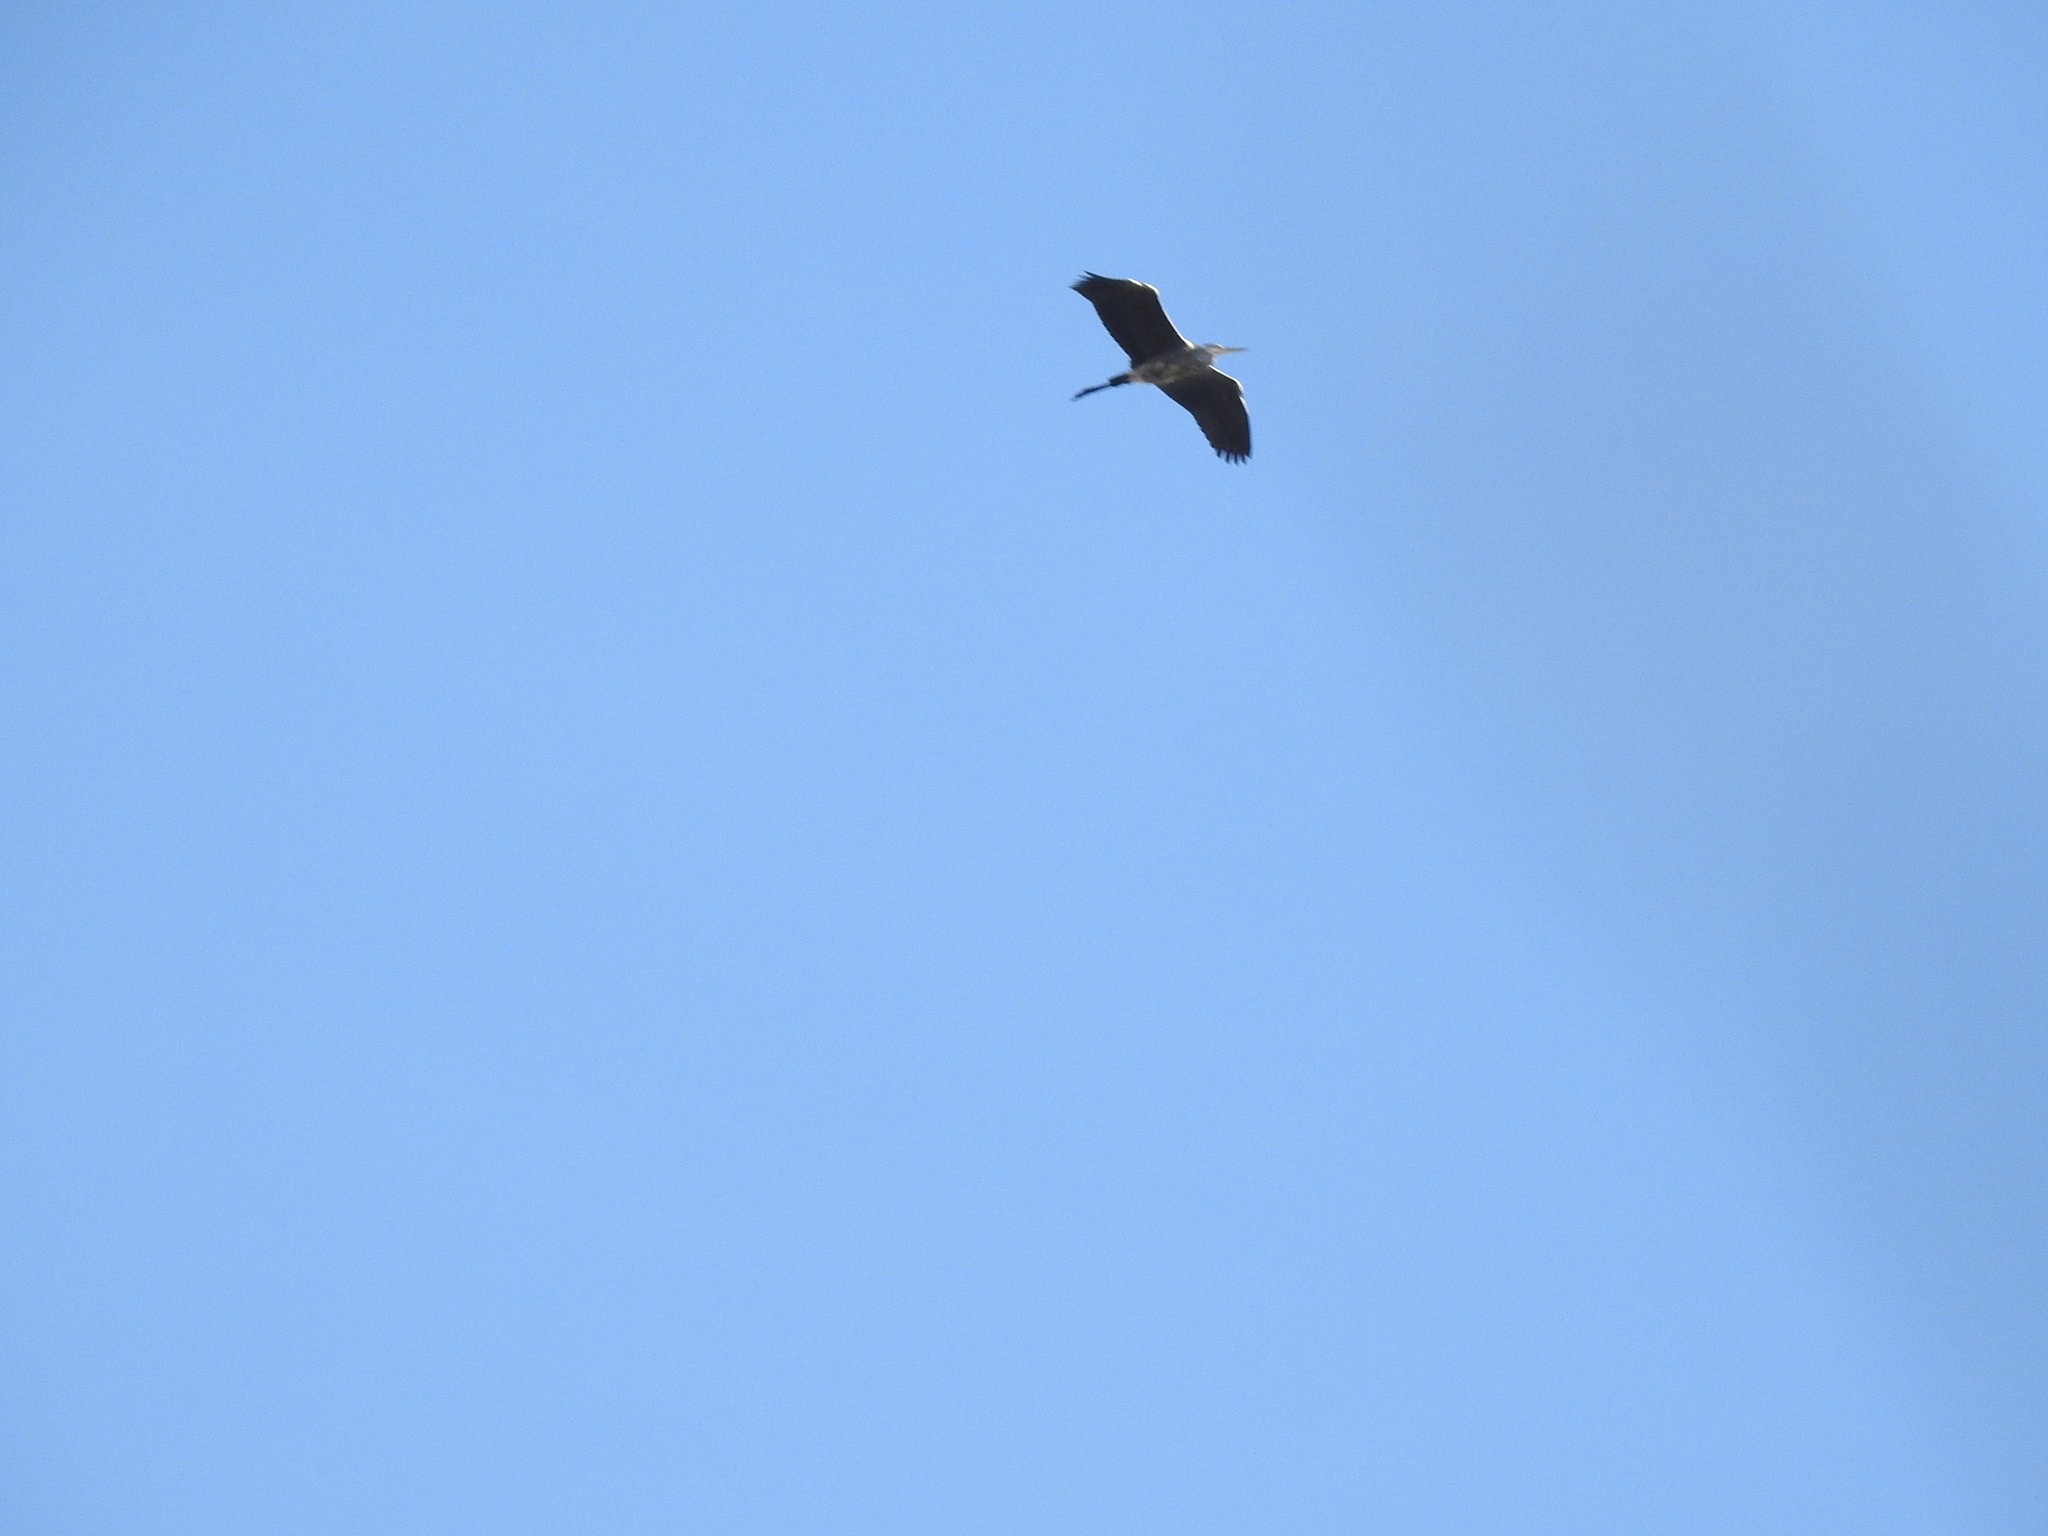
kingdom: Animalia
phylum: Chordata
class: Aves
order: Pelecaniformes
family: Ardeidae
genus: Ardea
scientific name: Ardea cinerea
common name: Grey heron
